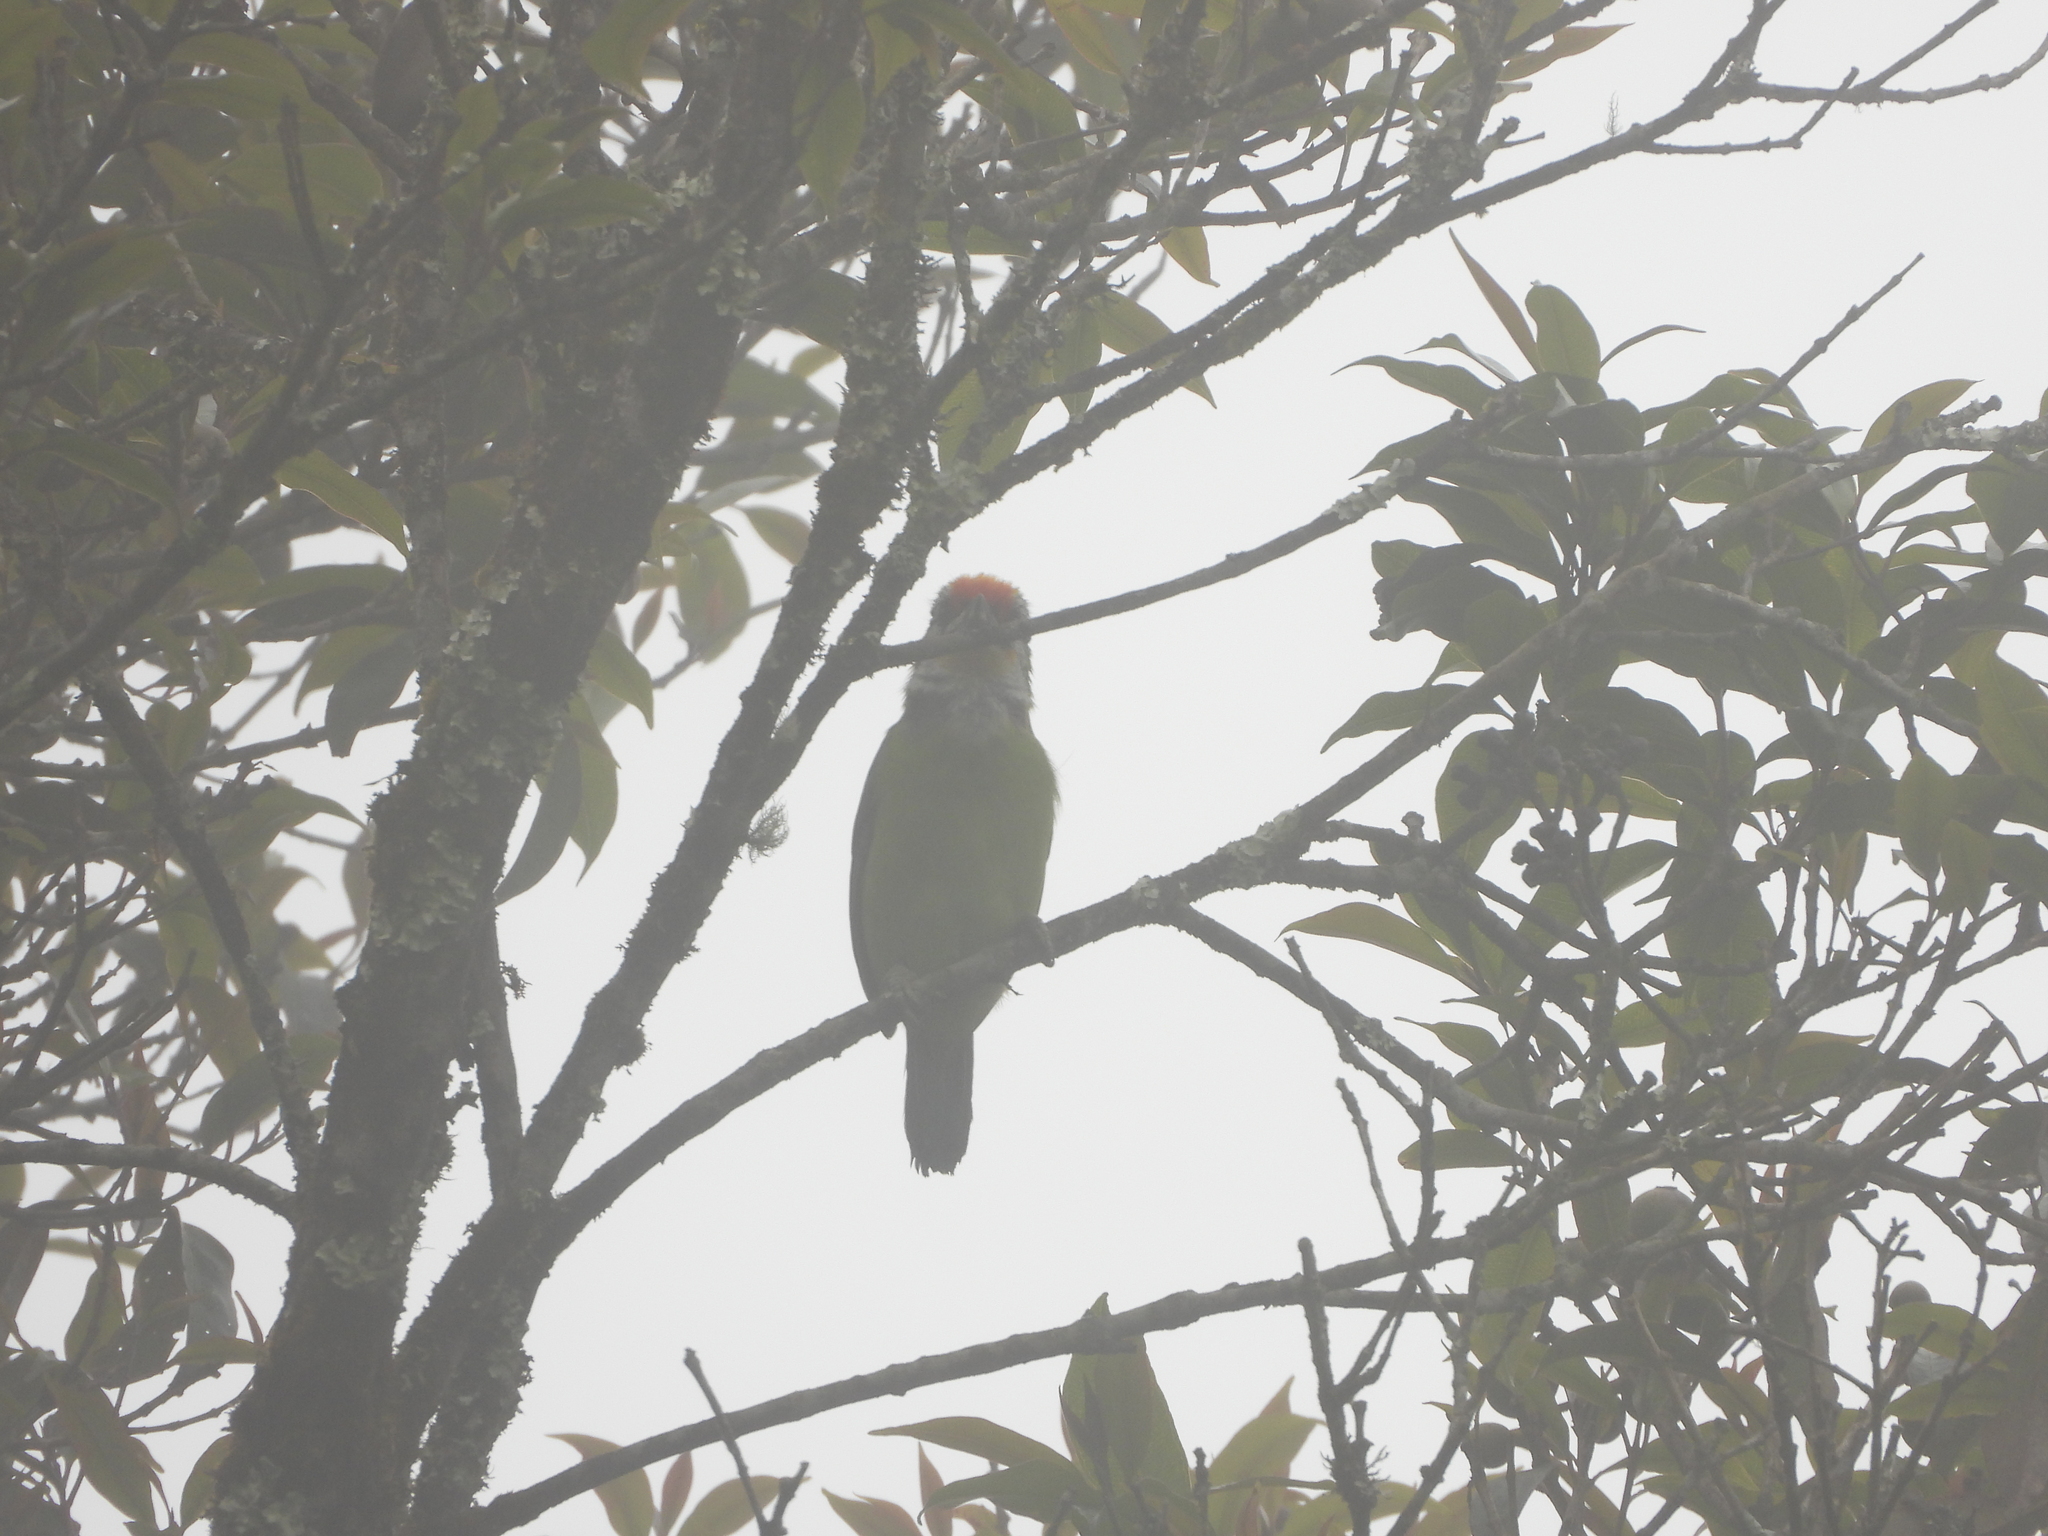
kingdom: Animalia
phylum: Chordata
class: Aves
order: Piciformes
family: Megalaimidae
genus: Psilopogon
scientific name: Psilopogon franklinii
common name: Golden-throated barbet
